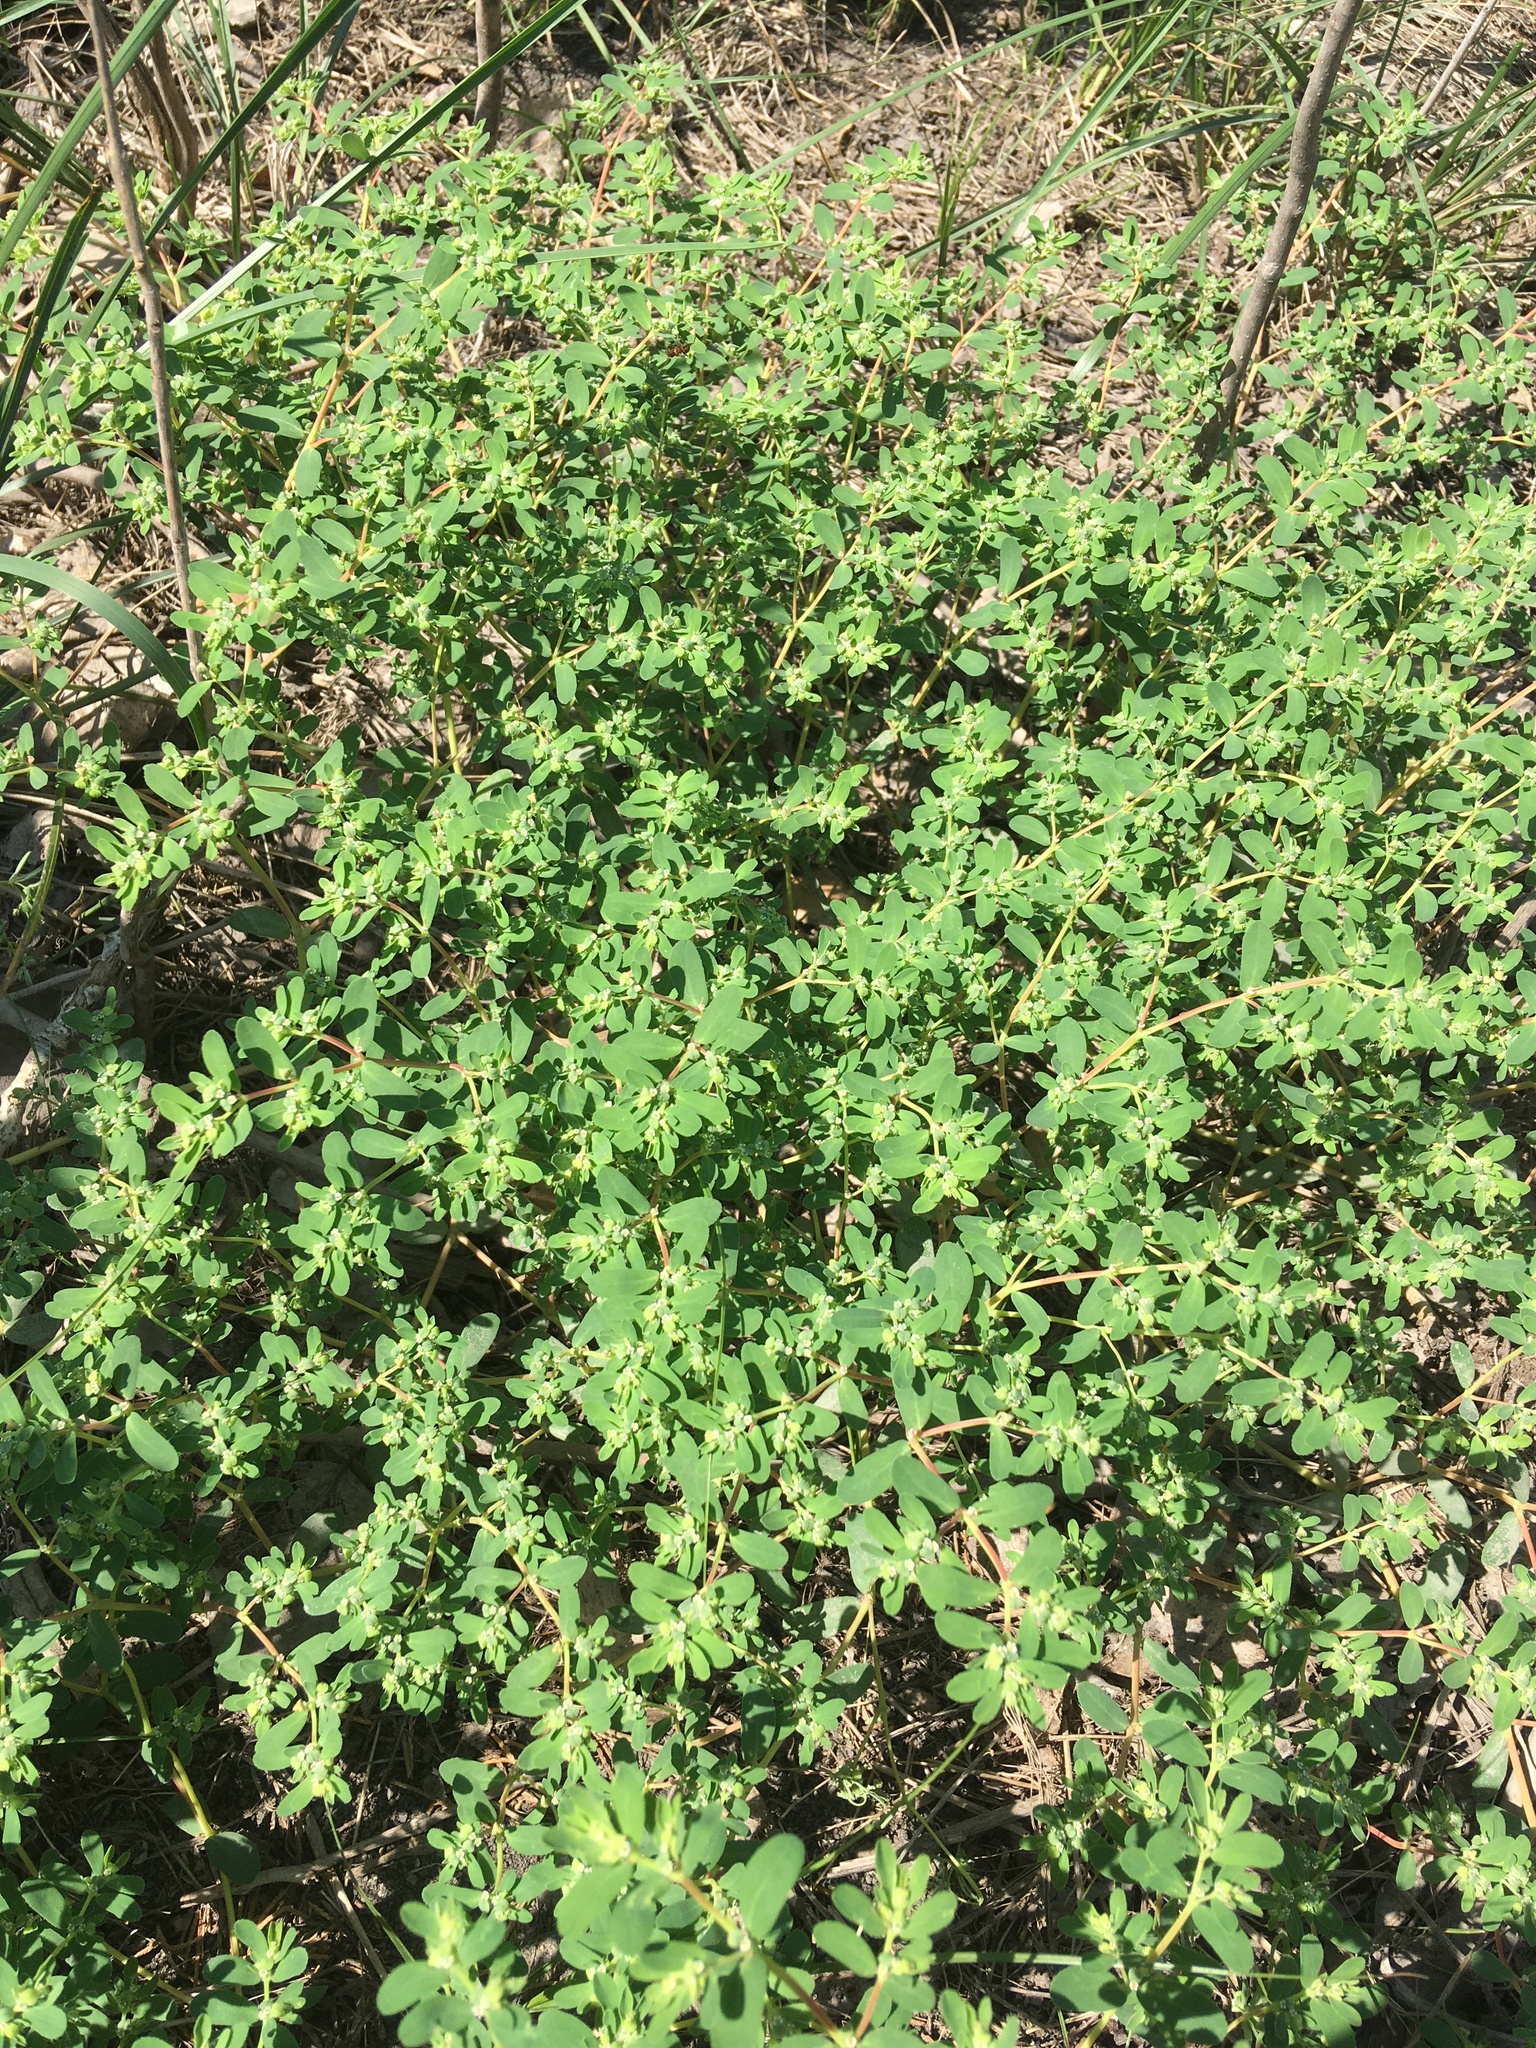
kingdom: Plantae
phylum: Tracheophyta
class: Magnoliopsida
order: Malpighiales
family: Euphorbiaceae
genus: Euphorbia
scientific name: Euphorbia serpillifolia
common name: Thyme-leaf spurge
